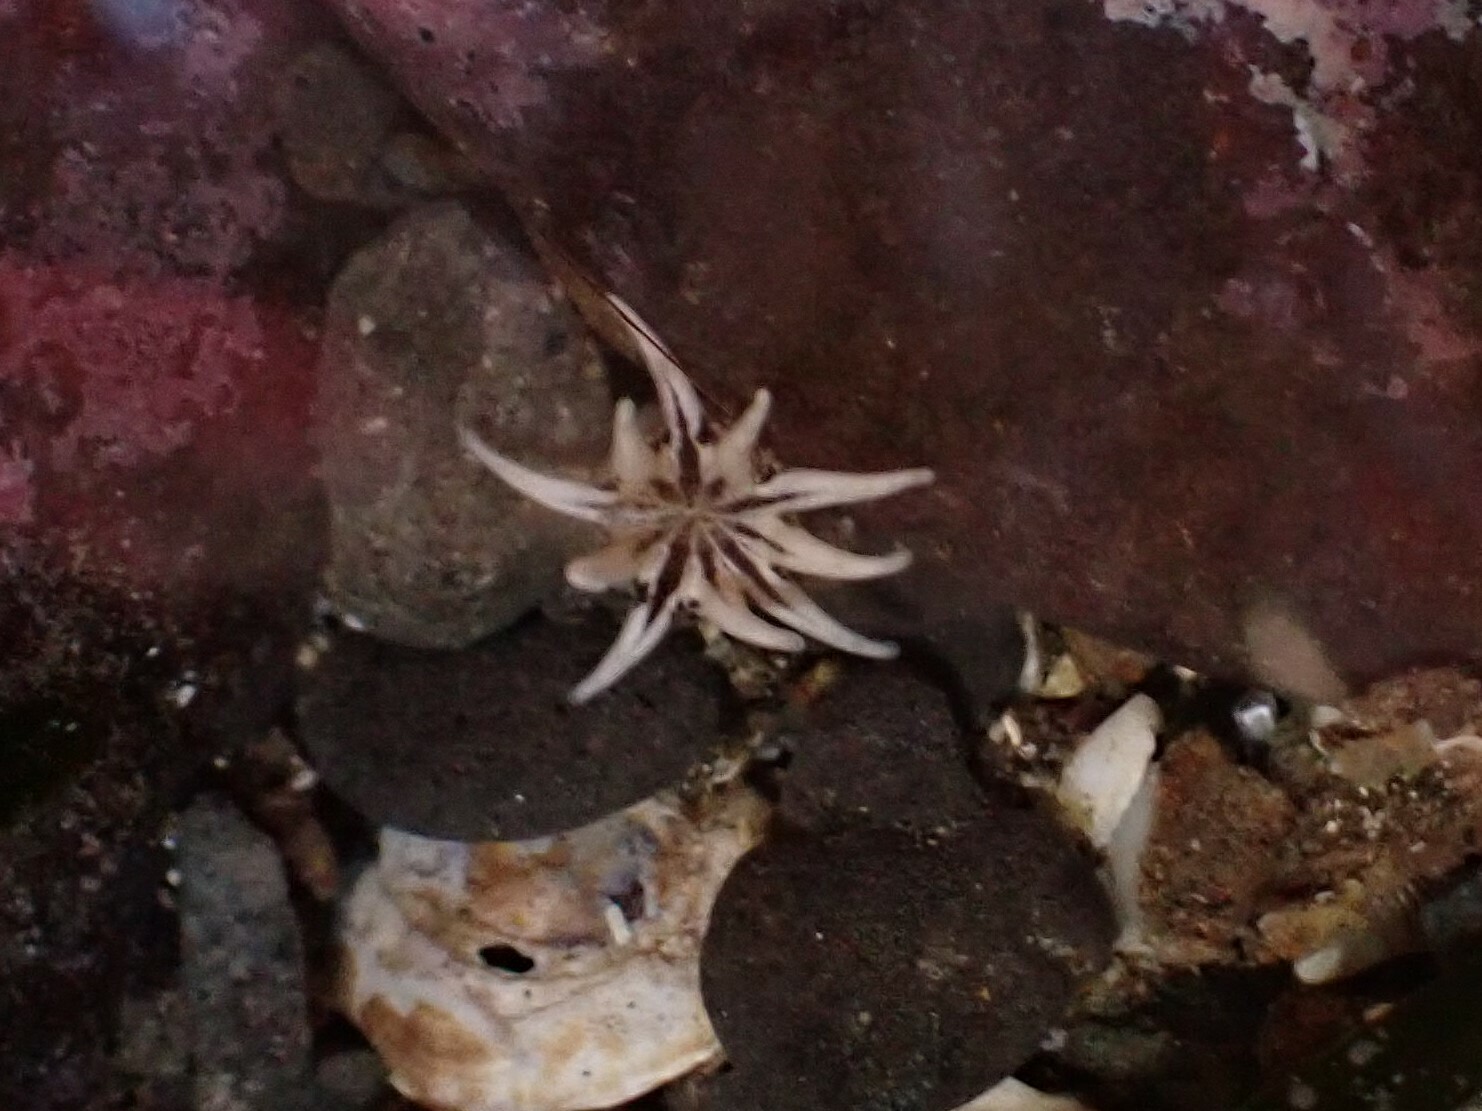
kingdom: Animalia
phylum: Cnidaria
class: Anthozoa
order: Actiniaria
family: Halcampidae
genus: Halcampa
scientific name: Halcampa decemtentaculata
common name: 10-tentacle burrowing anemone
